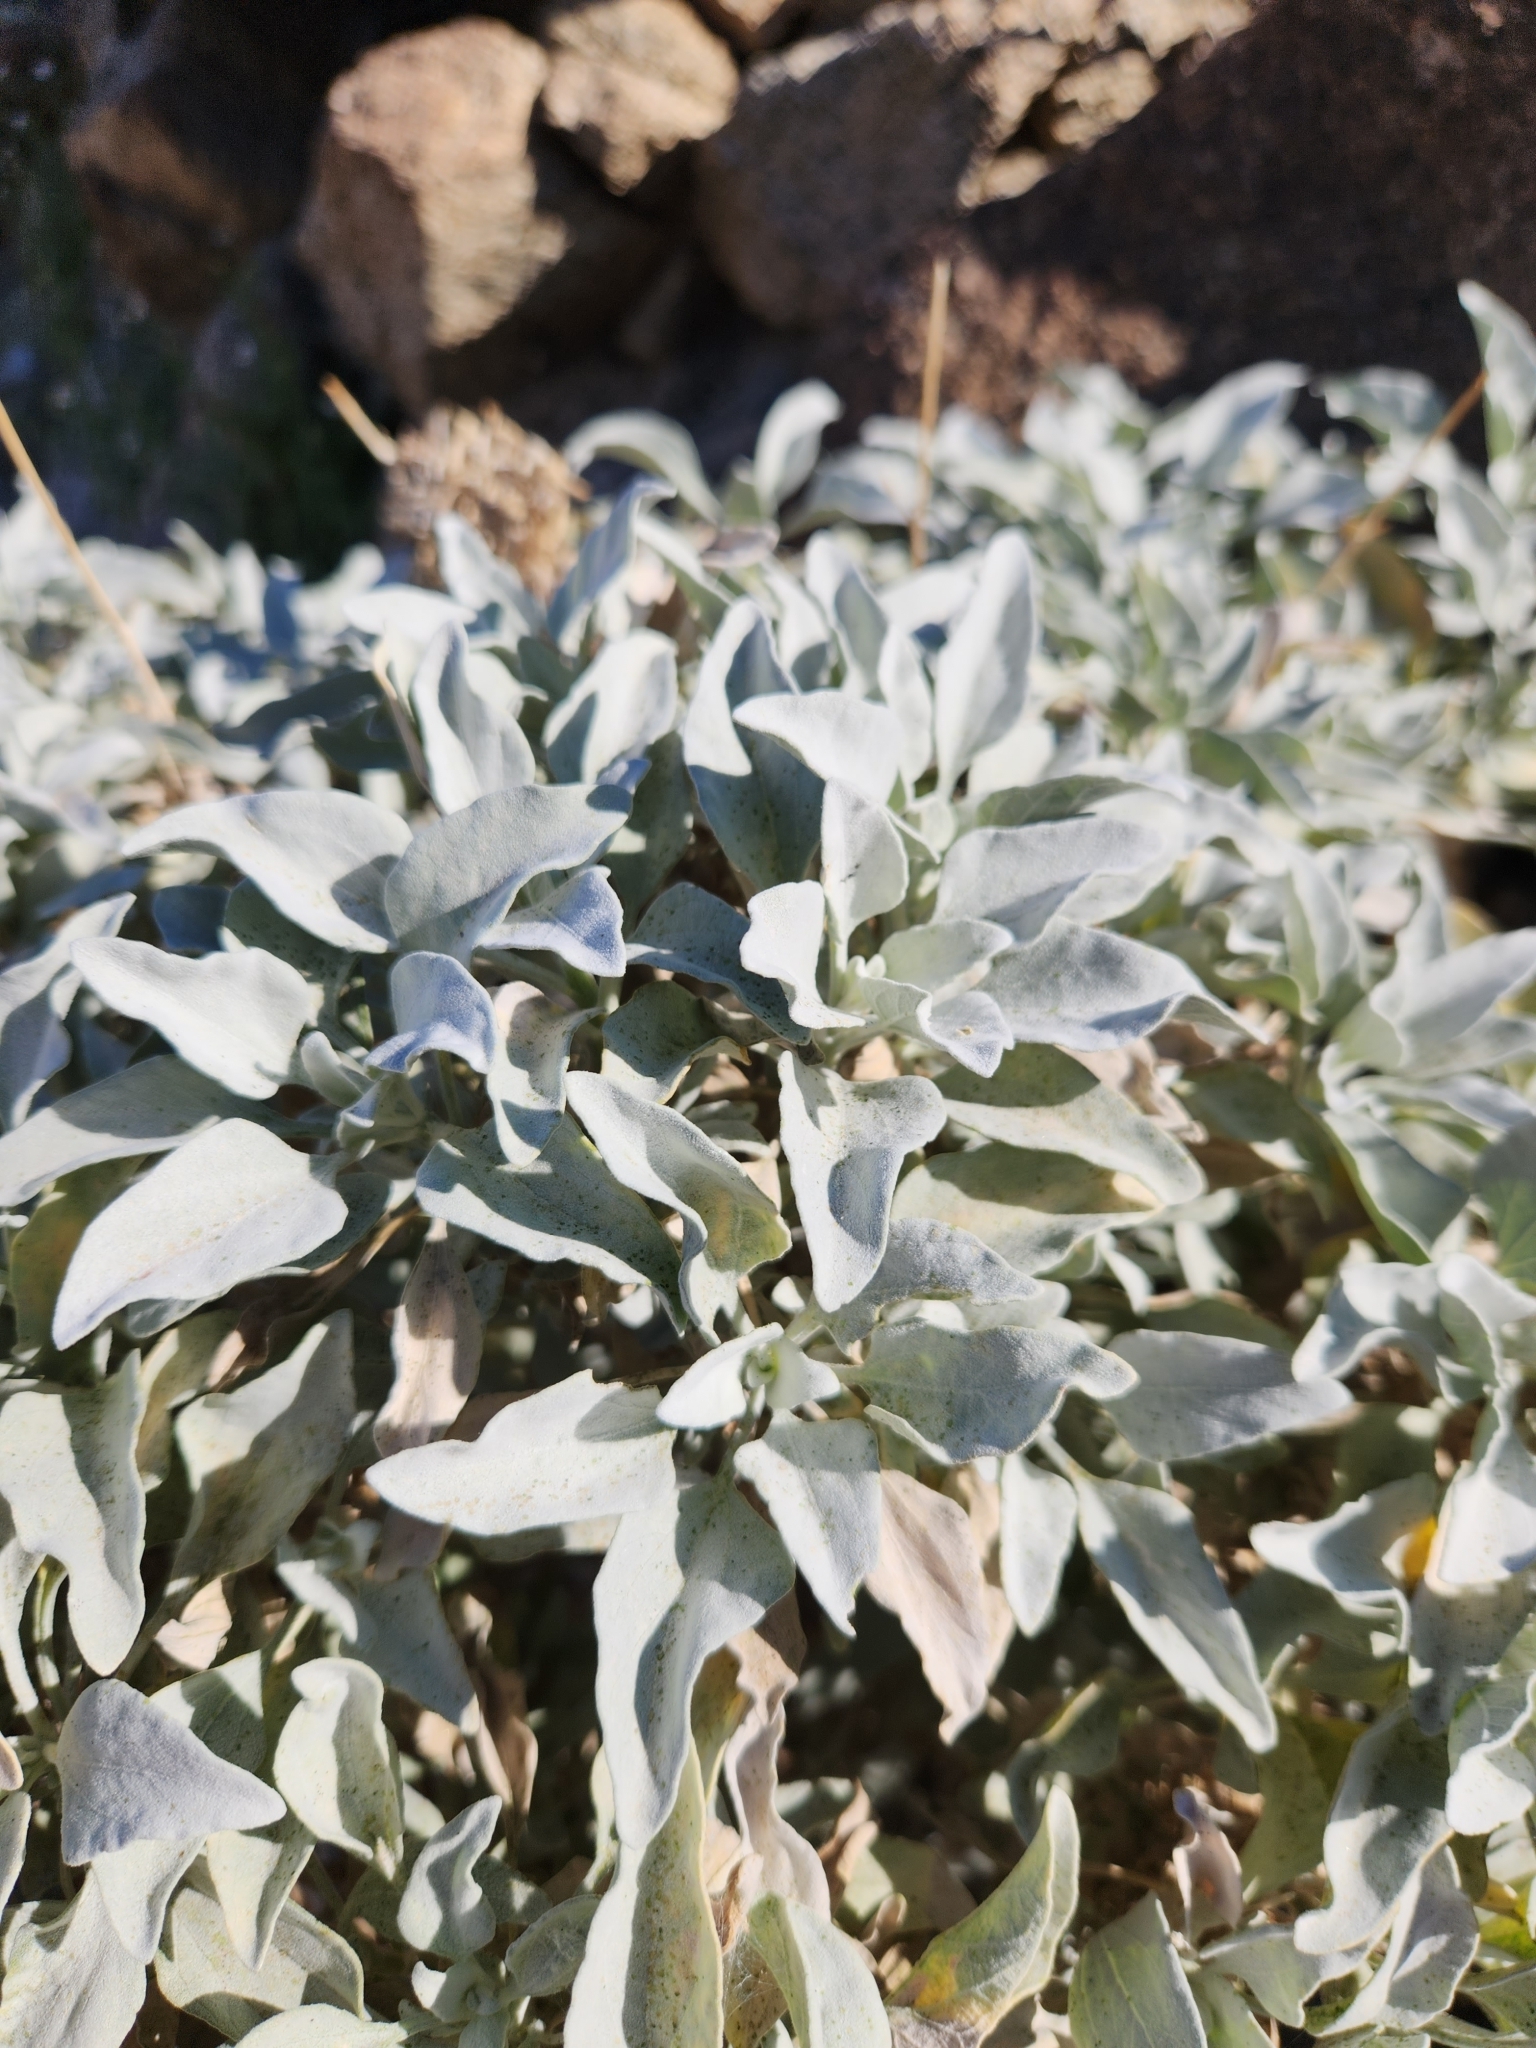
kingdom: Plantae
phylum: Tracheophyta
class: Magnoliopsida
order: Asterales
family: Asteraceae
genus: Encelia
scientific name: Encelia farinosa
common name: Brittlebush
